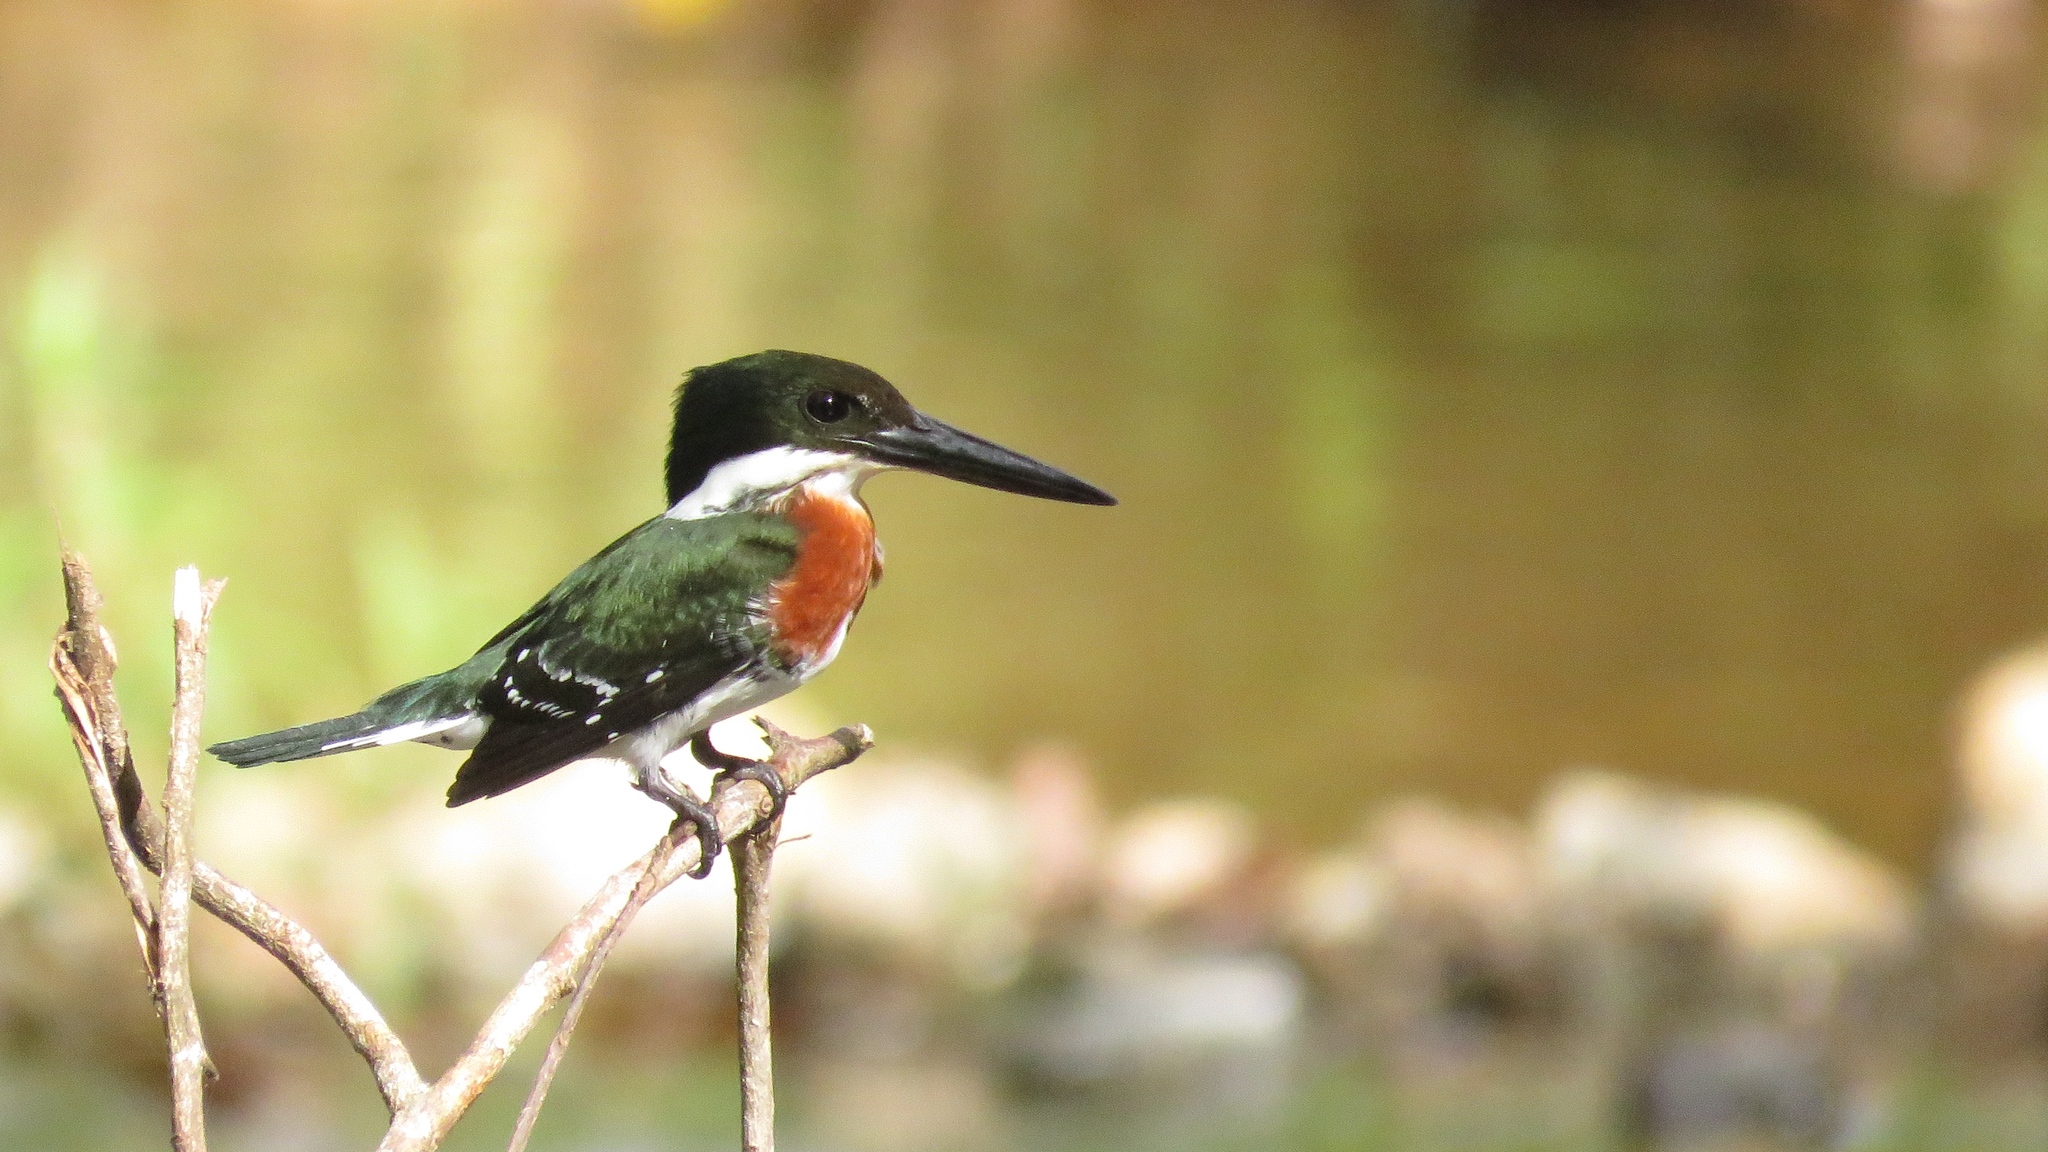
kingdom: Animalia
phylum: Chordata
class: Aves
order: Coraciiformes
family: Alcedinidae
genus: Chloroceryle
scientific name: Chloroceryle americana
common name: Green kingfisher
